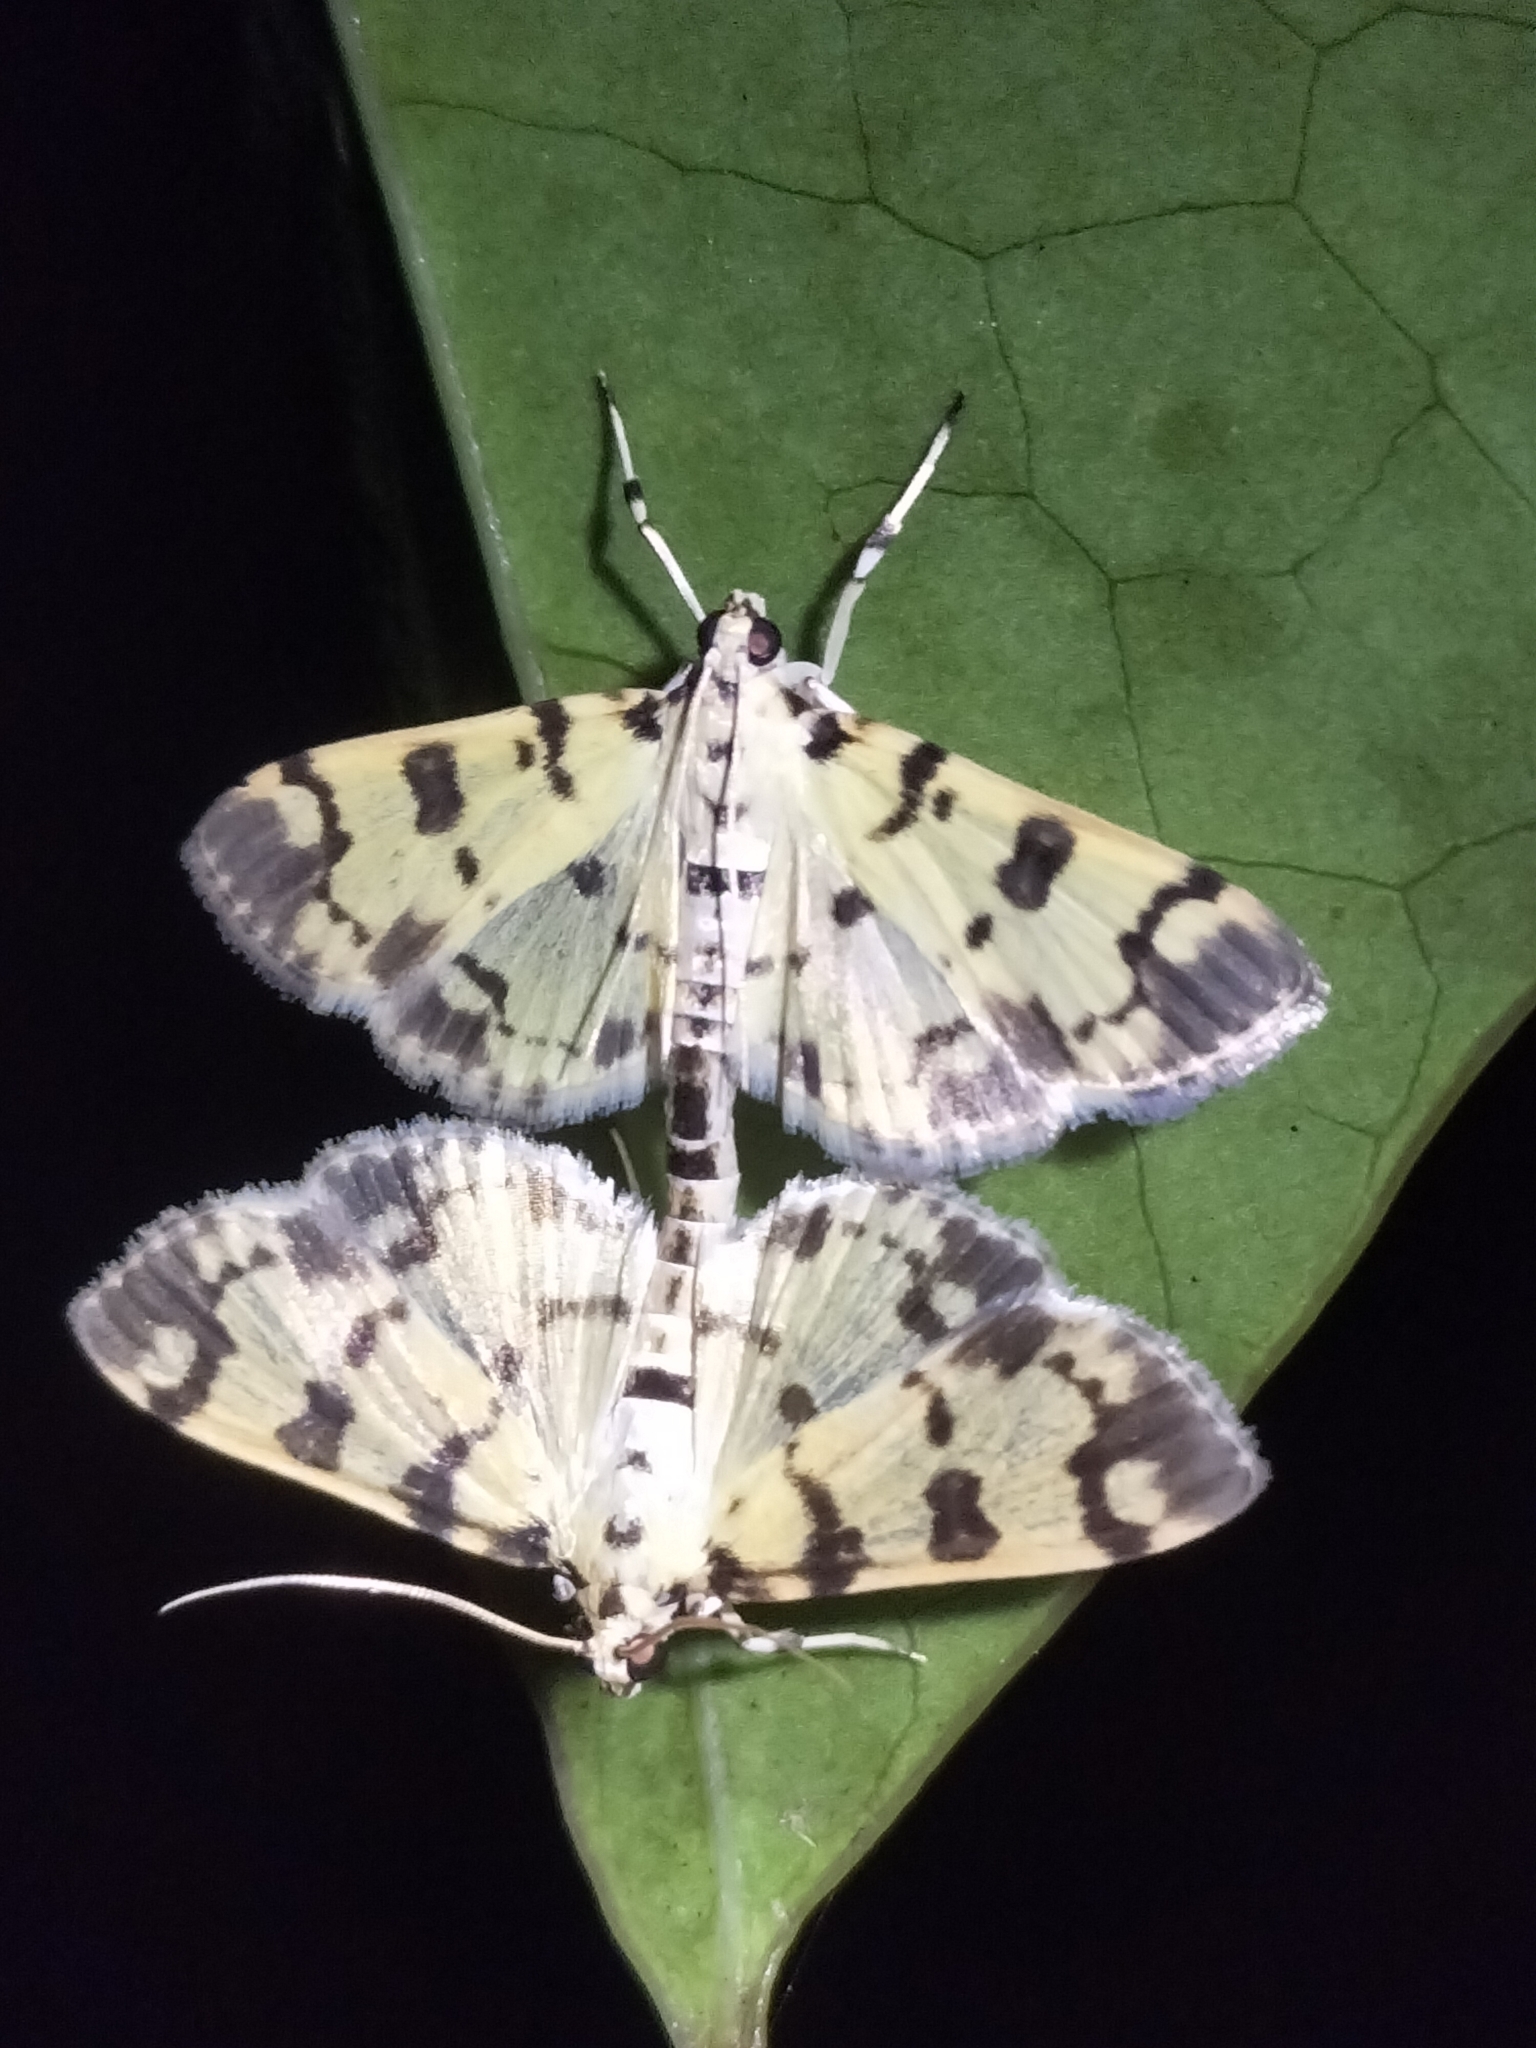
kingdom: Animalia
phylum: Arthropoda
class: Insecta
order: Lepidoptera
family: Crambidae
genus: Pardomima
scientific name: Pardomima pompusalis
